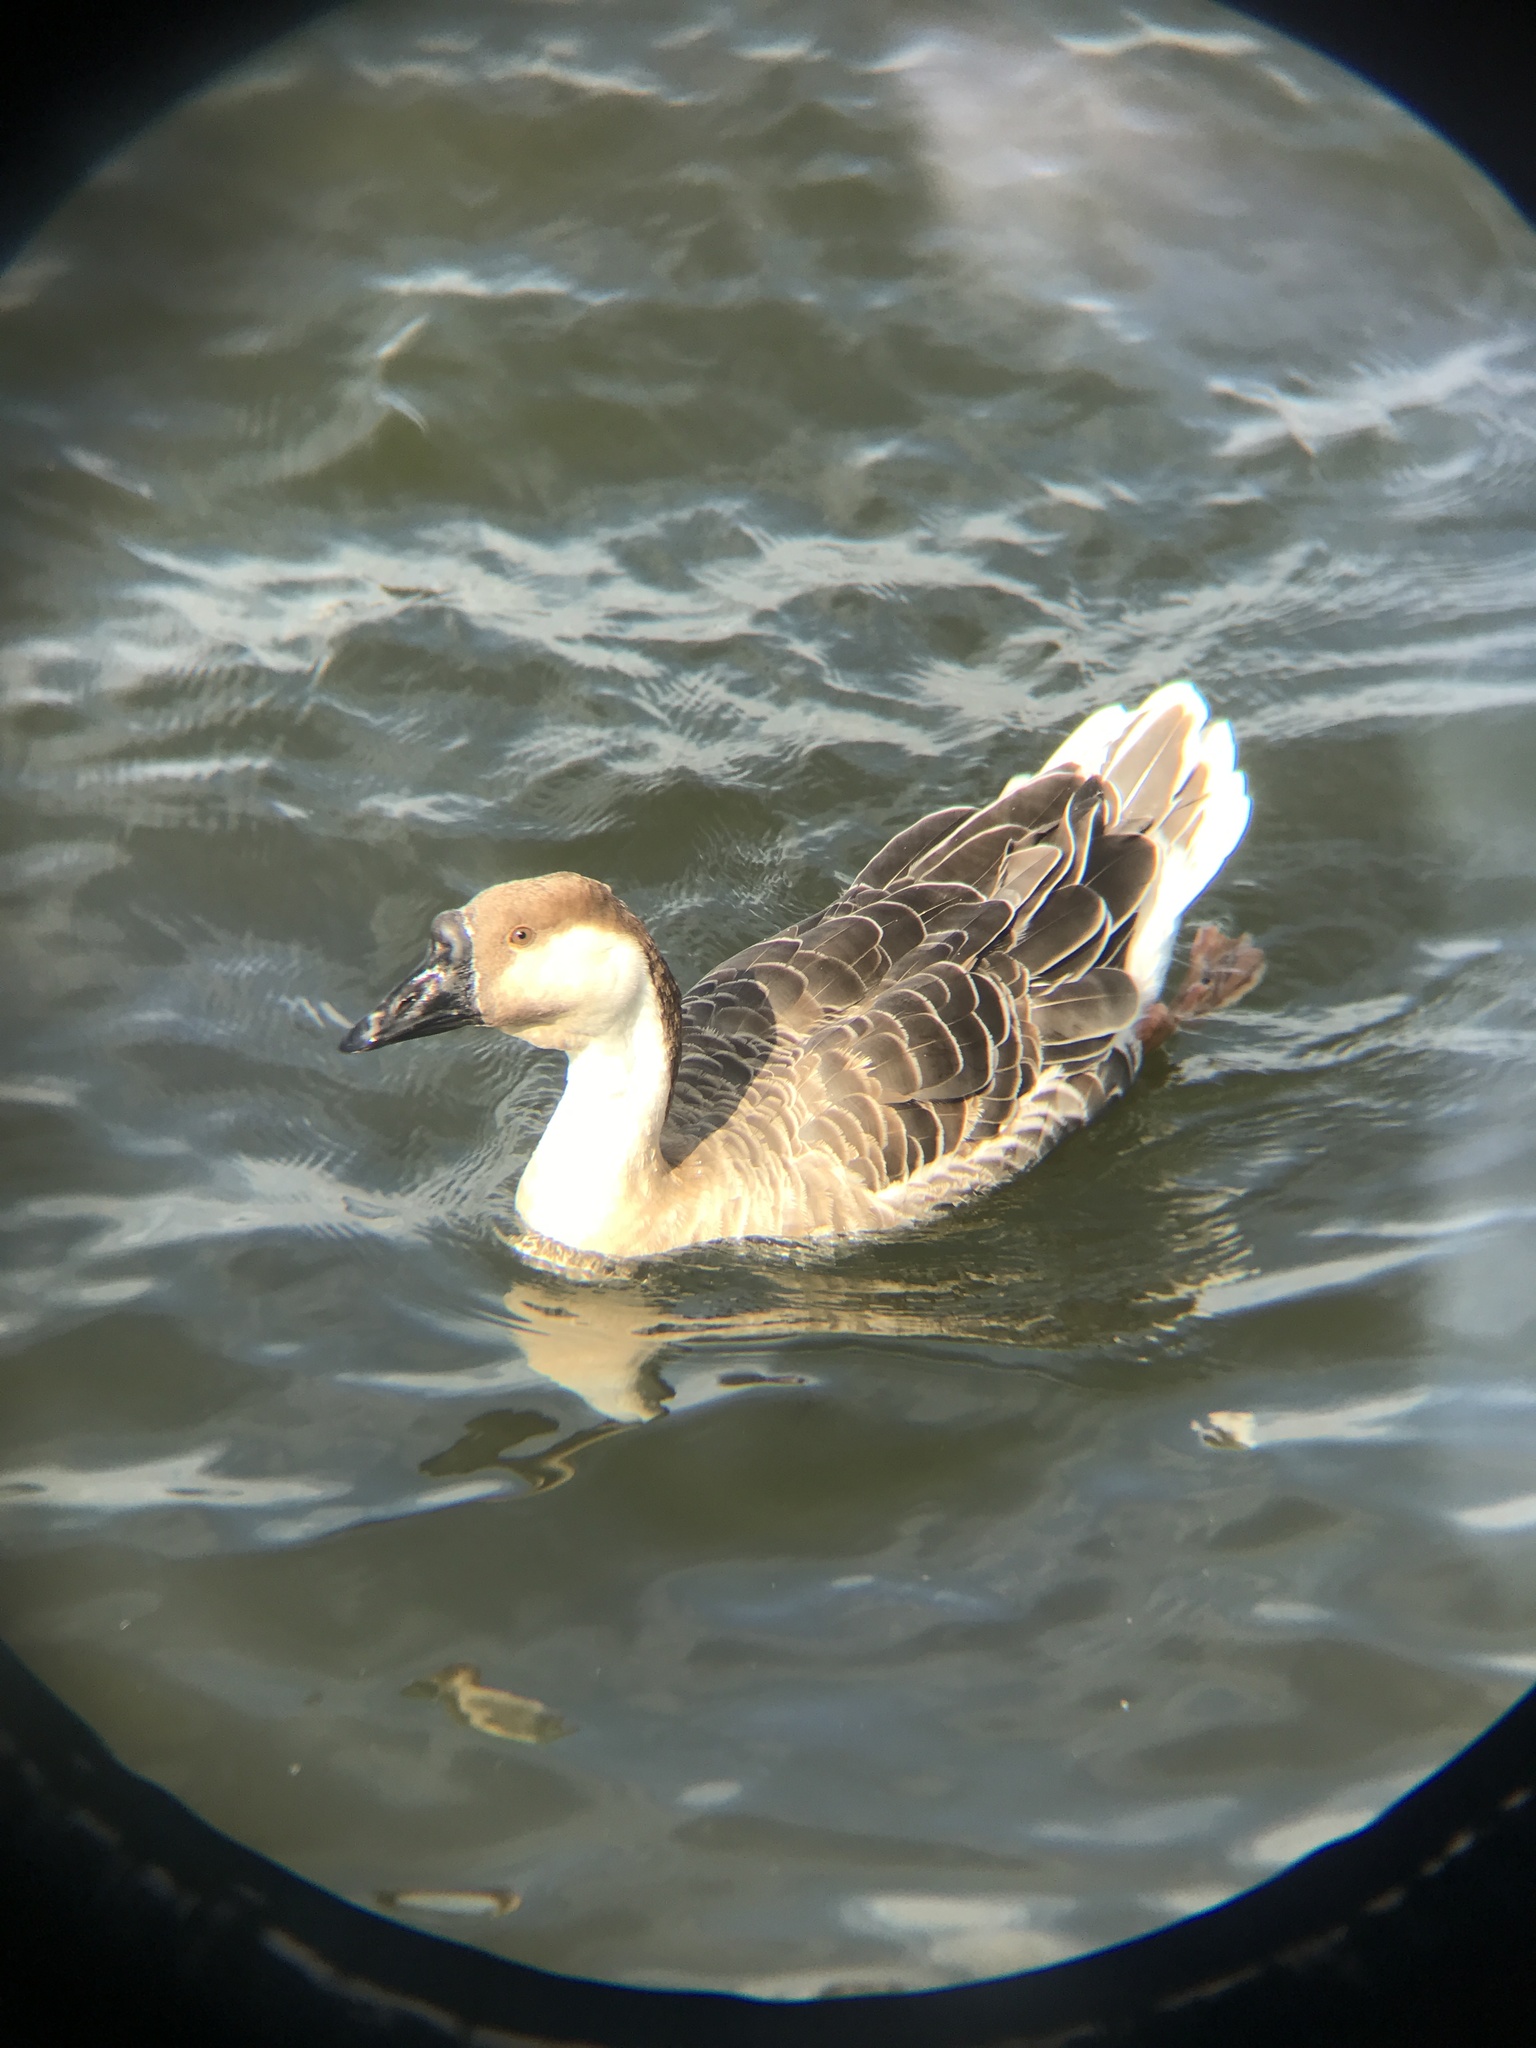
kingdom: Animalia
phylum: Chordata
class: Aves
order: Anseriformes
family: Anatidae
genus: Anser
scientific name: Anser cygnoides
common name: Swan goose
